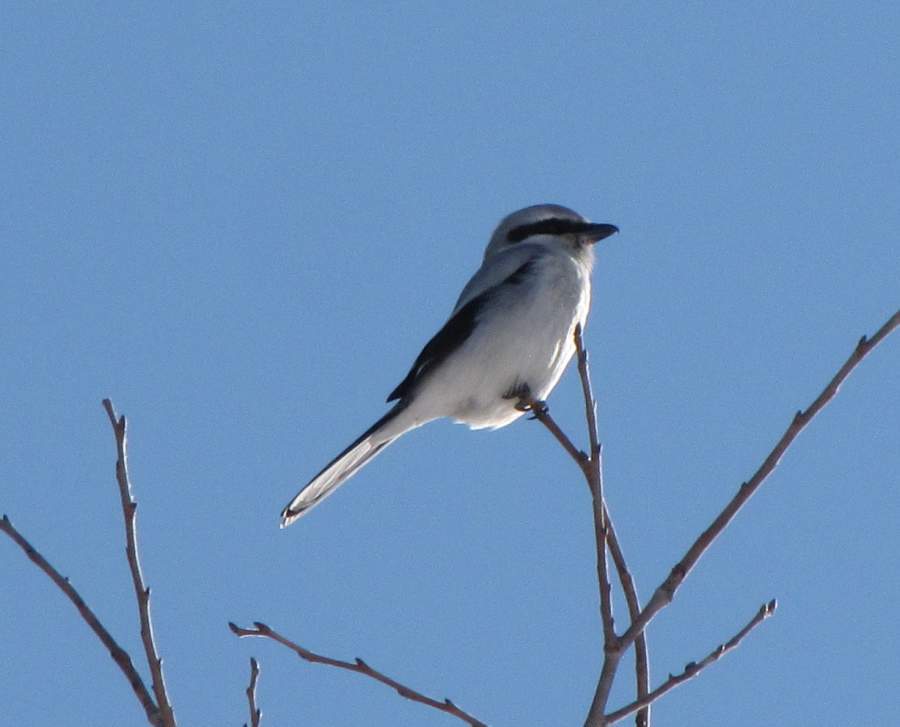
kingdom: Animalia
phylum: Chordata
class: Aves
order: Passeriformes
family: Laniidae
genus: Lanius
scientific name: Lanius borealis
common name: Northern shrike
